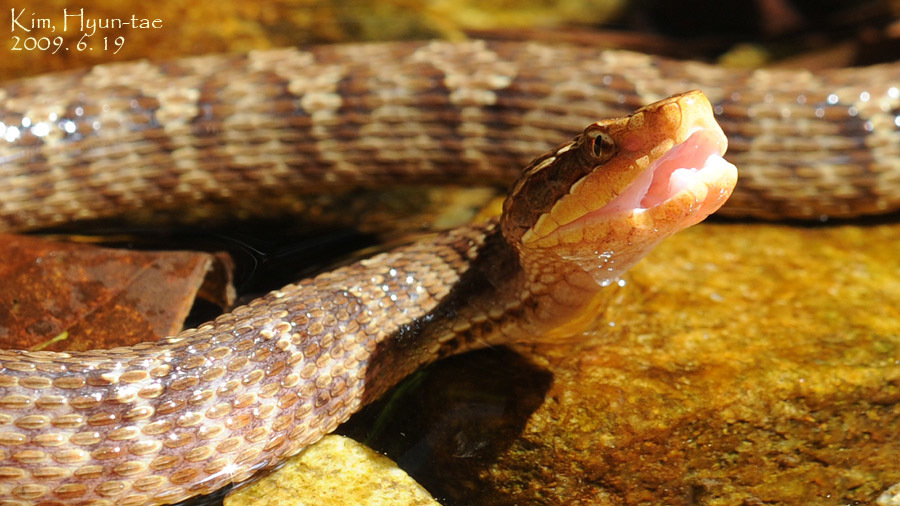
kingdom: Animalia
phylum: Chordata
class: Squamata
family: Viperidae
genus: Gloydius
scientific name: Gloydius ussuriensis
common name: Ussuri mamushi
